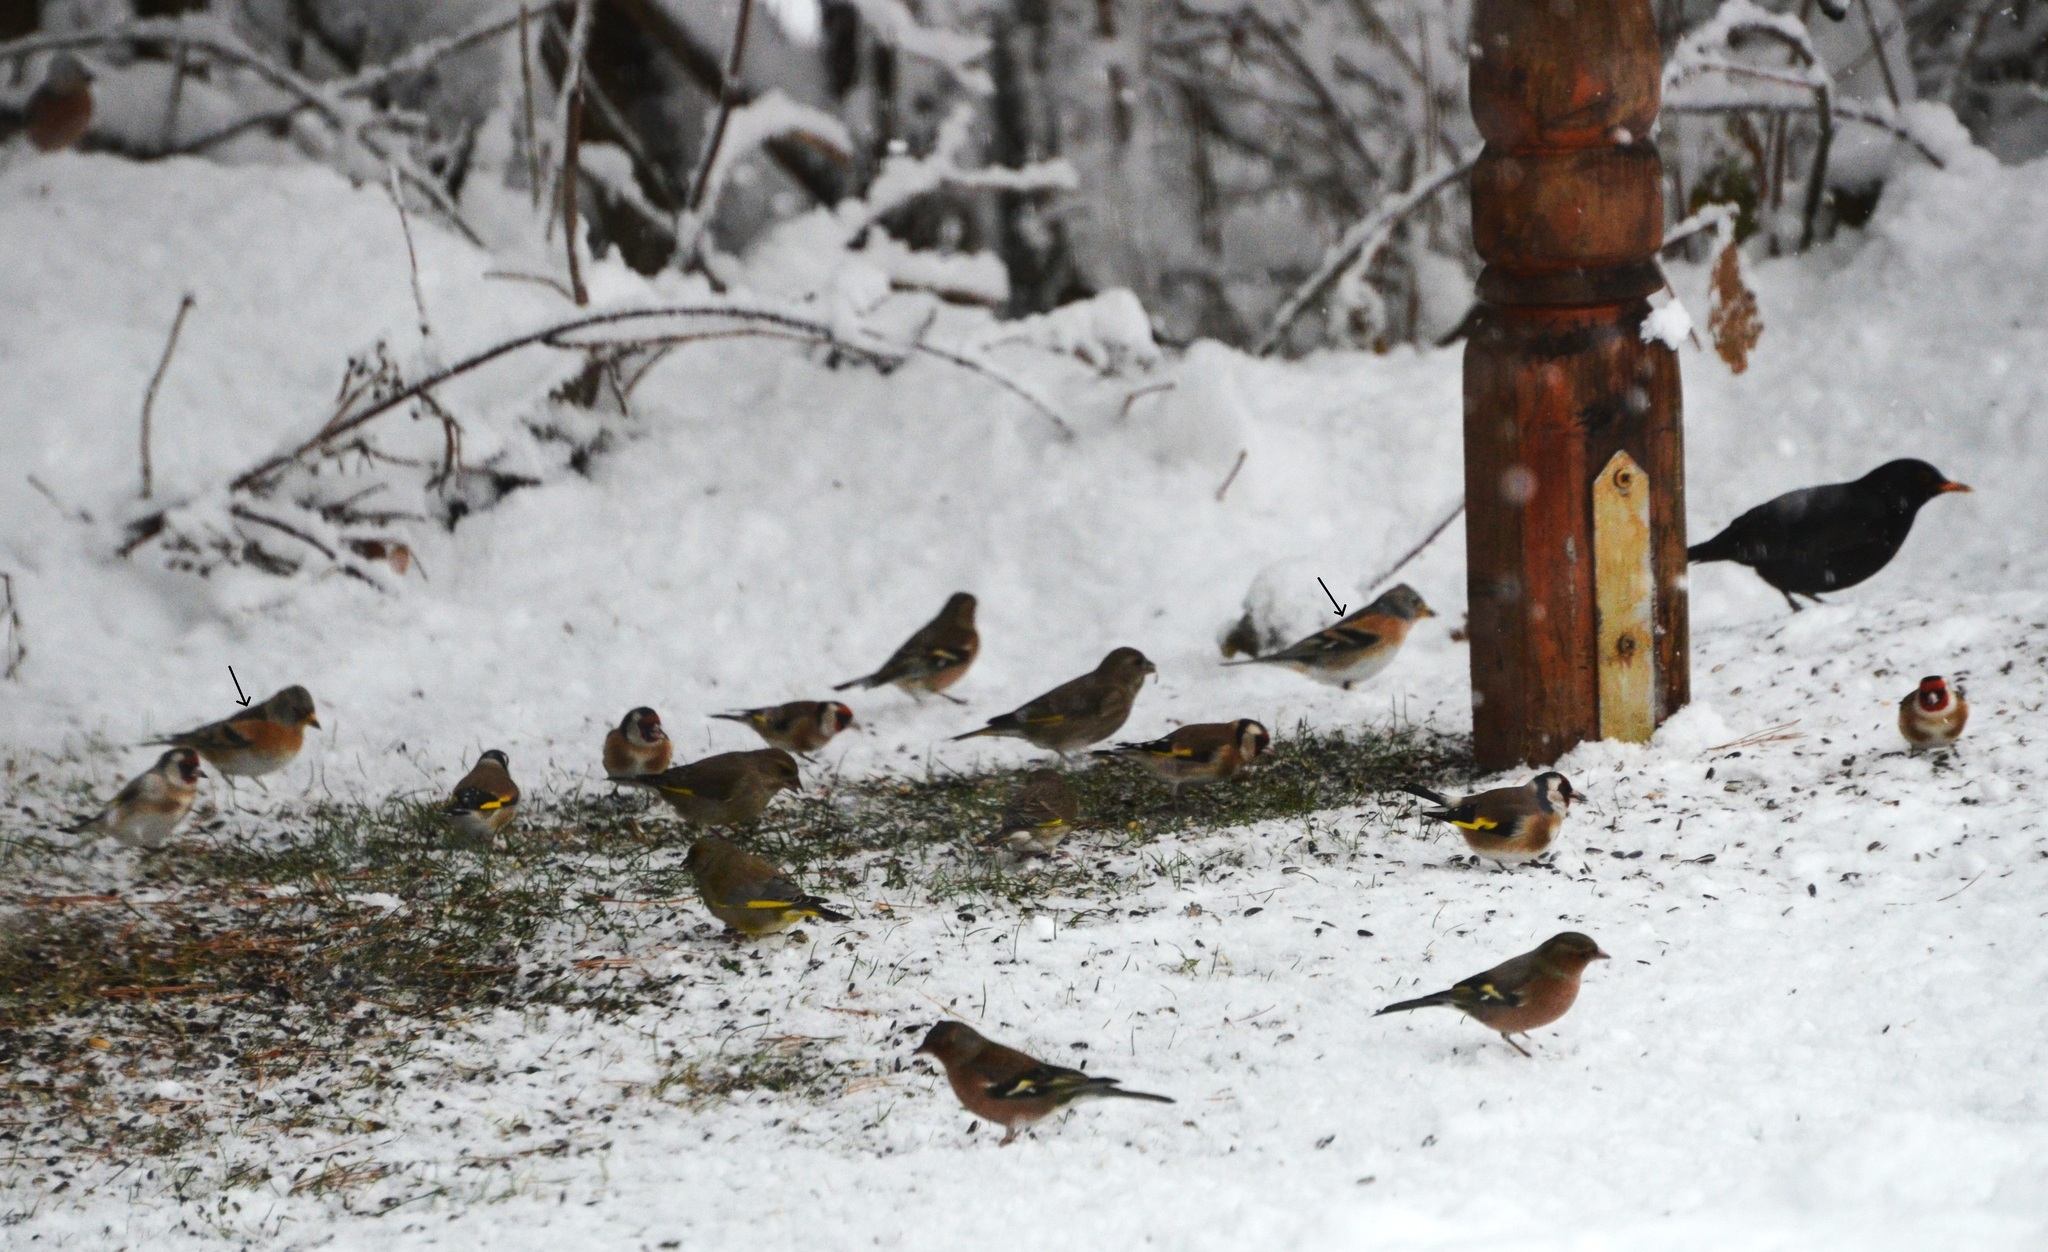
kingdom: Animalia
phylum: Chordata
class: Aves
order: Passeriformes
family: Fringillidae
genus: Fringilla
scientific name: Fringilla montifringilla
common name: Brambling
